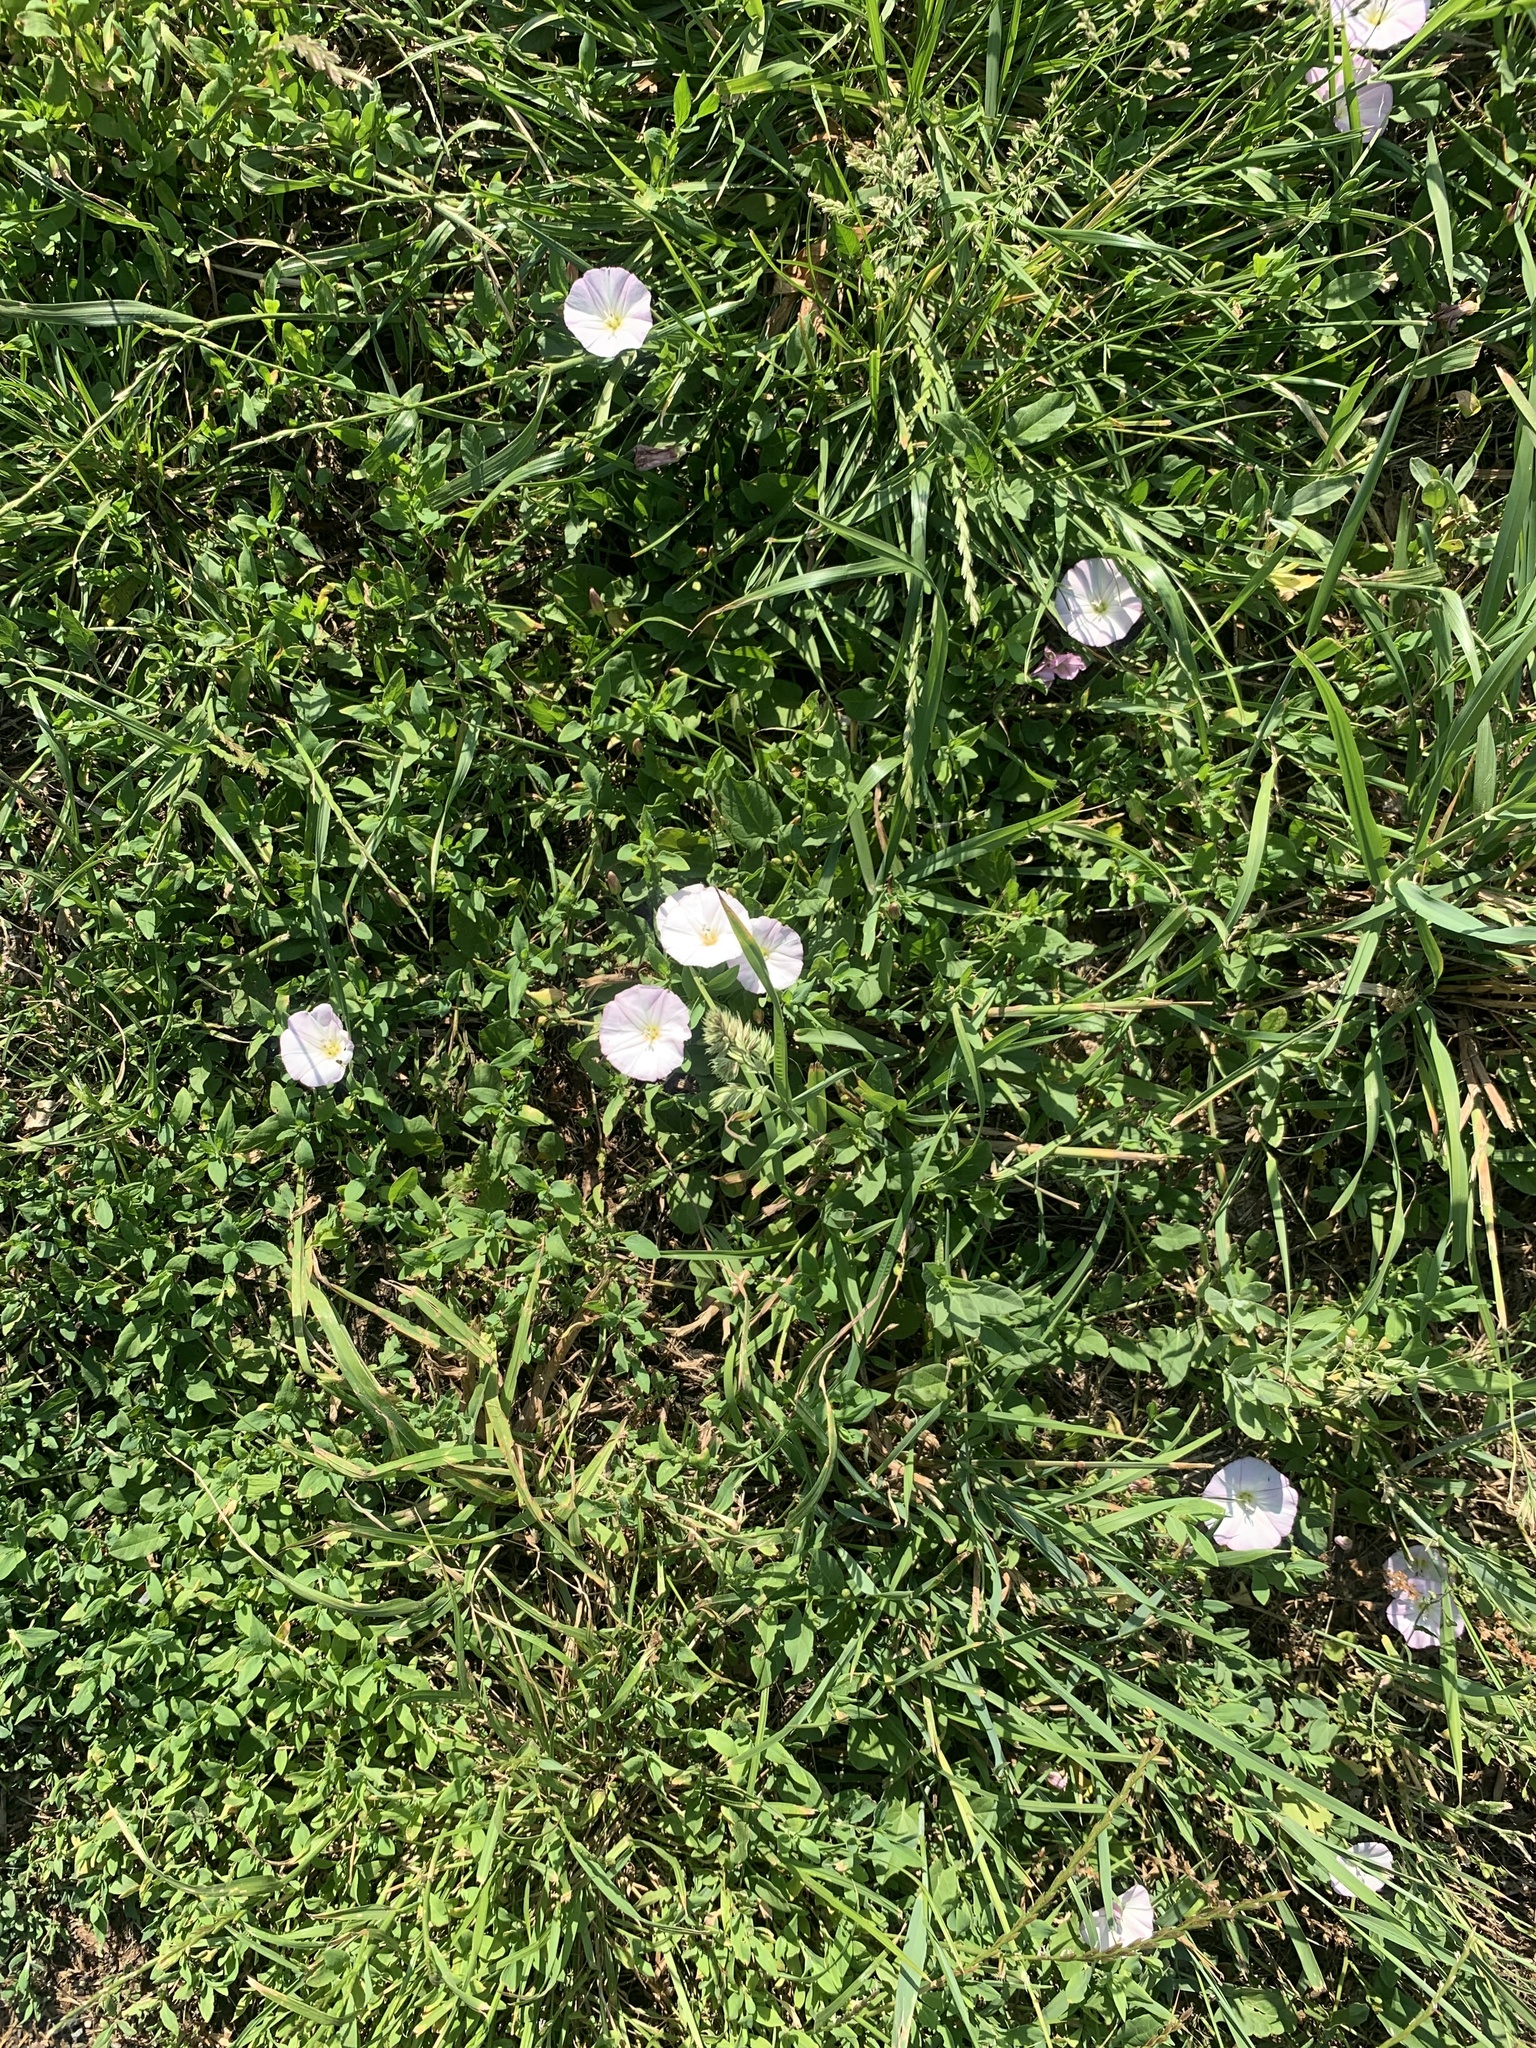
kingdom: Plantae
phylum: Tracheophyta
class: Magnoliopsida
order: Solanales
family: Convolvulaceae
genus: Convolvulus
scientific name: Convolvulus arvensis
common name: Field bindweed
